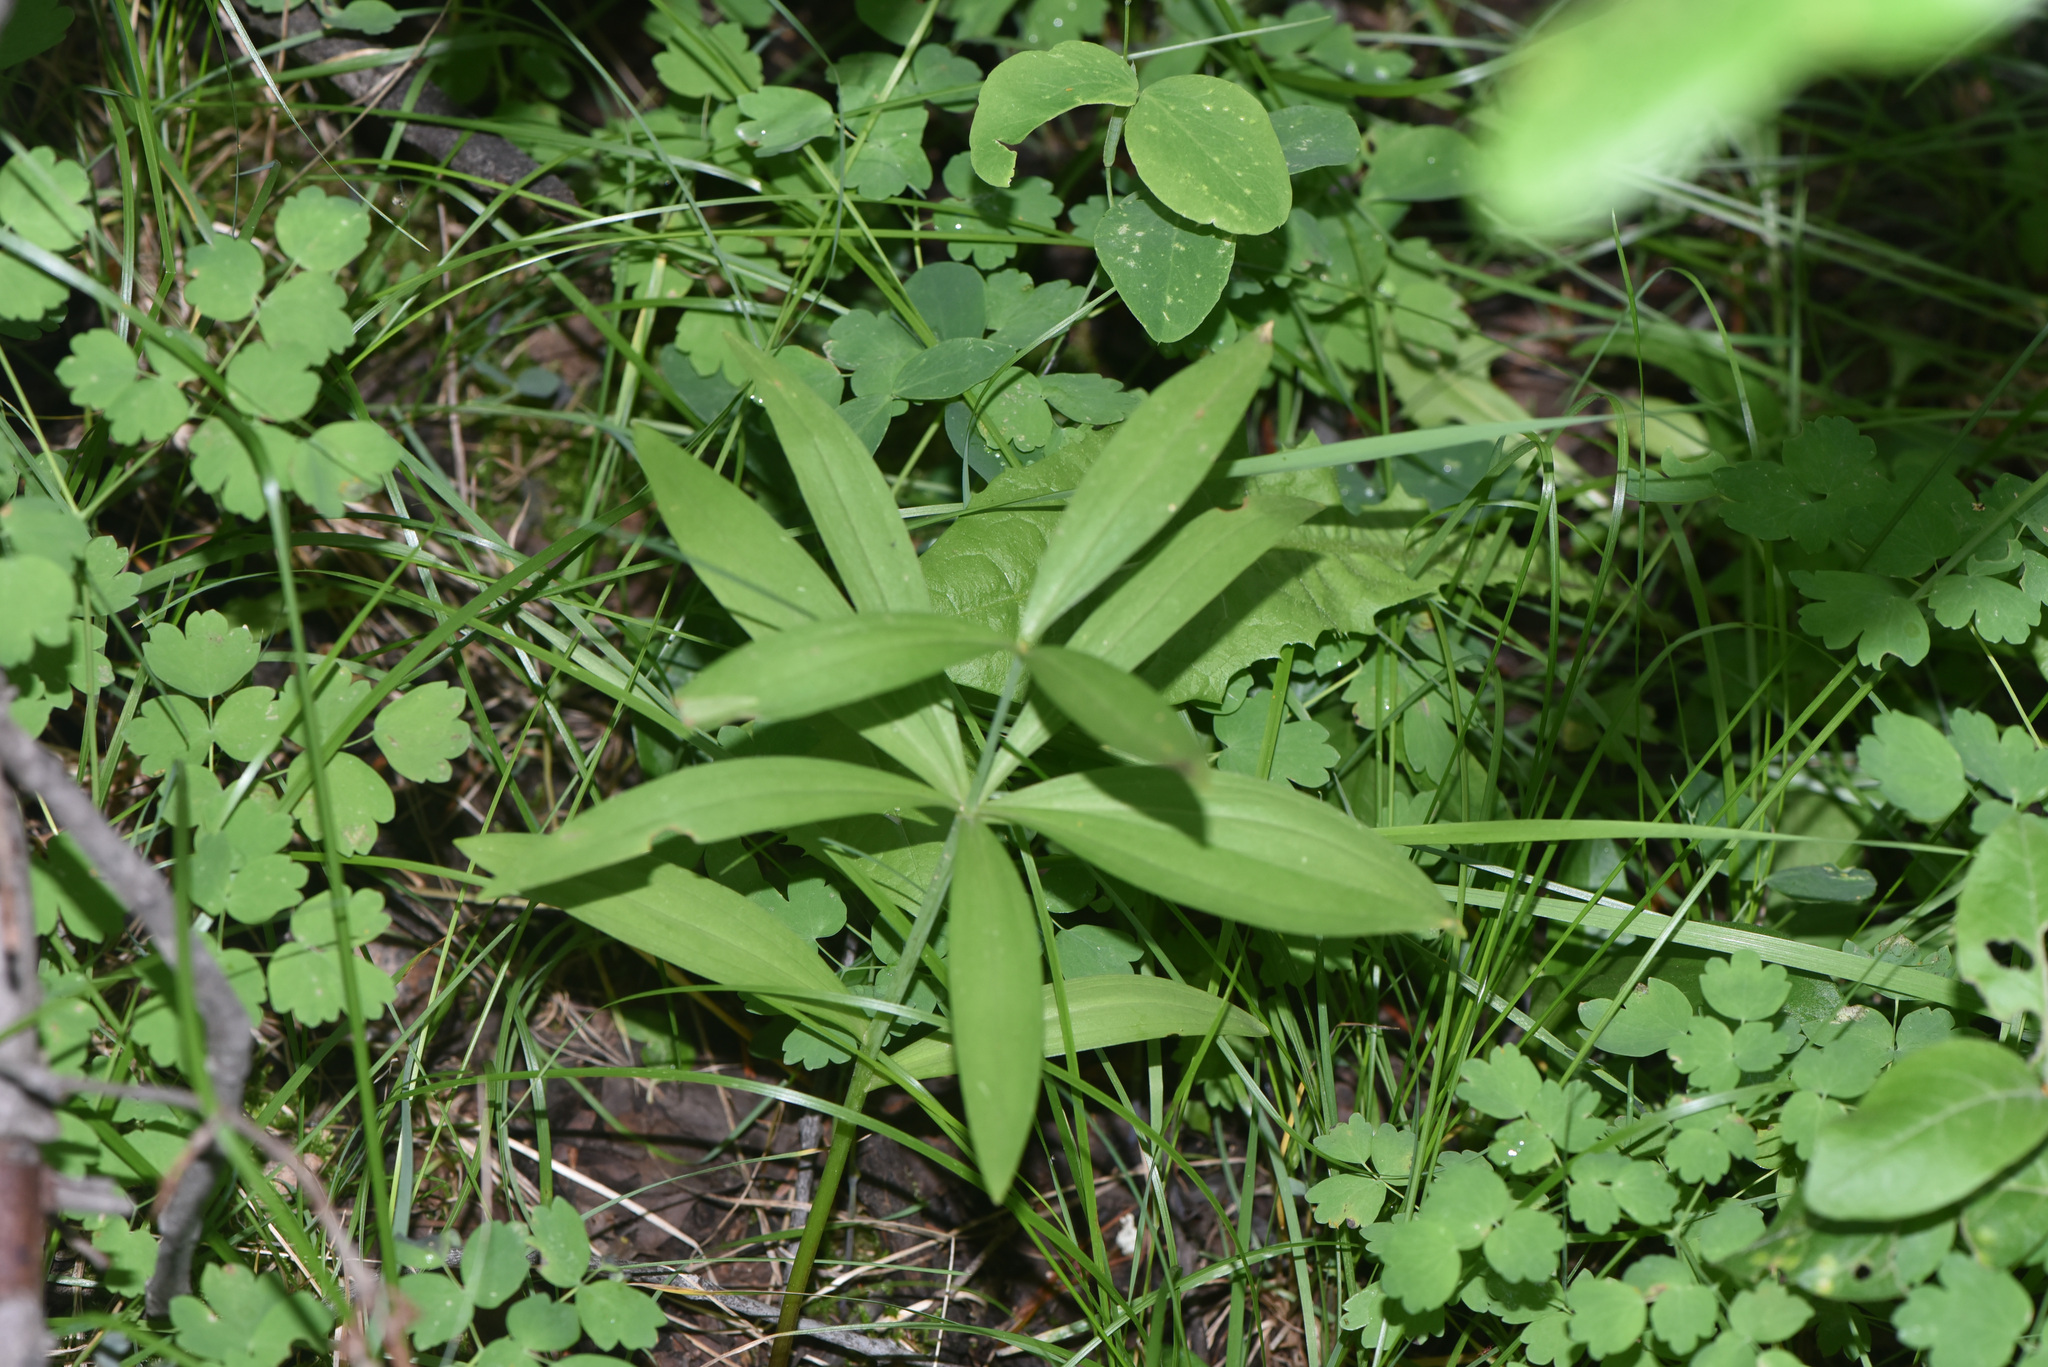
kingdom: Plantae
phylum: Tracheophyta
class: Liliopsida
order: Liliales
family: Liliaceae
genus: Lilium
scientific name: Lilium columbianum
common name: Columbia lily
